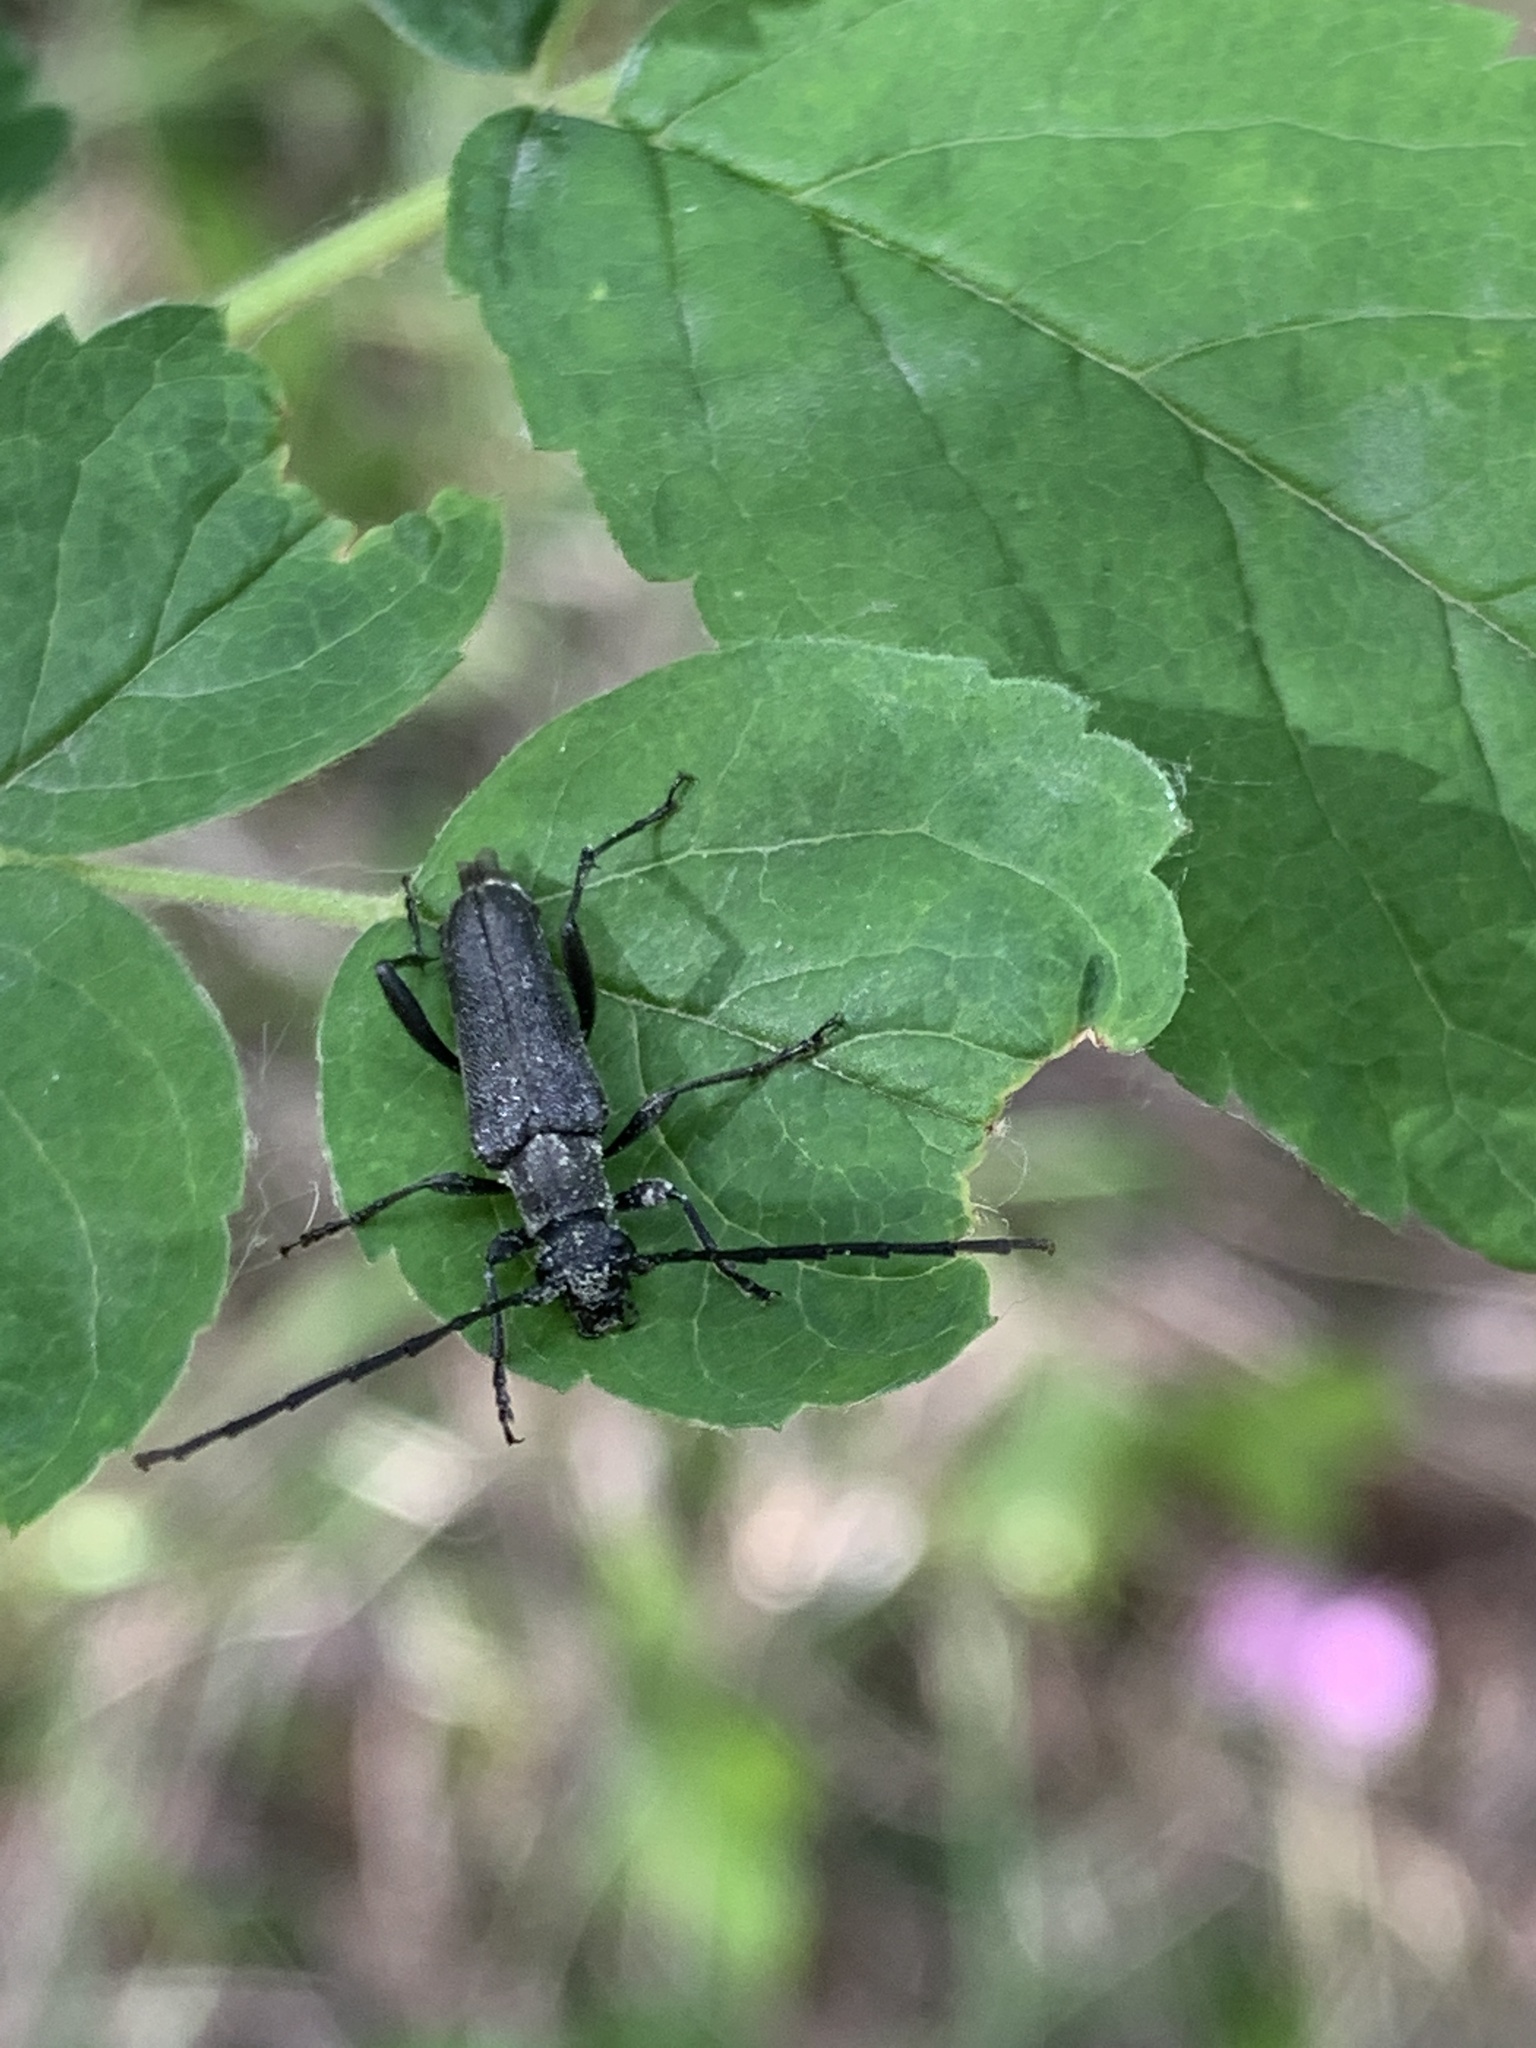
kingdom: Animalia
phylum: Arthropoda
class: Insecta
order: Coleoptera
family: Cerambycidae
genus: Trachysida
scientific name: Trachysida mutabilis
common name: Changeable flower longhorn
